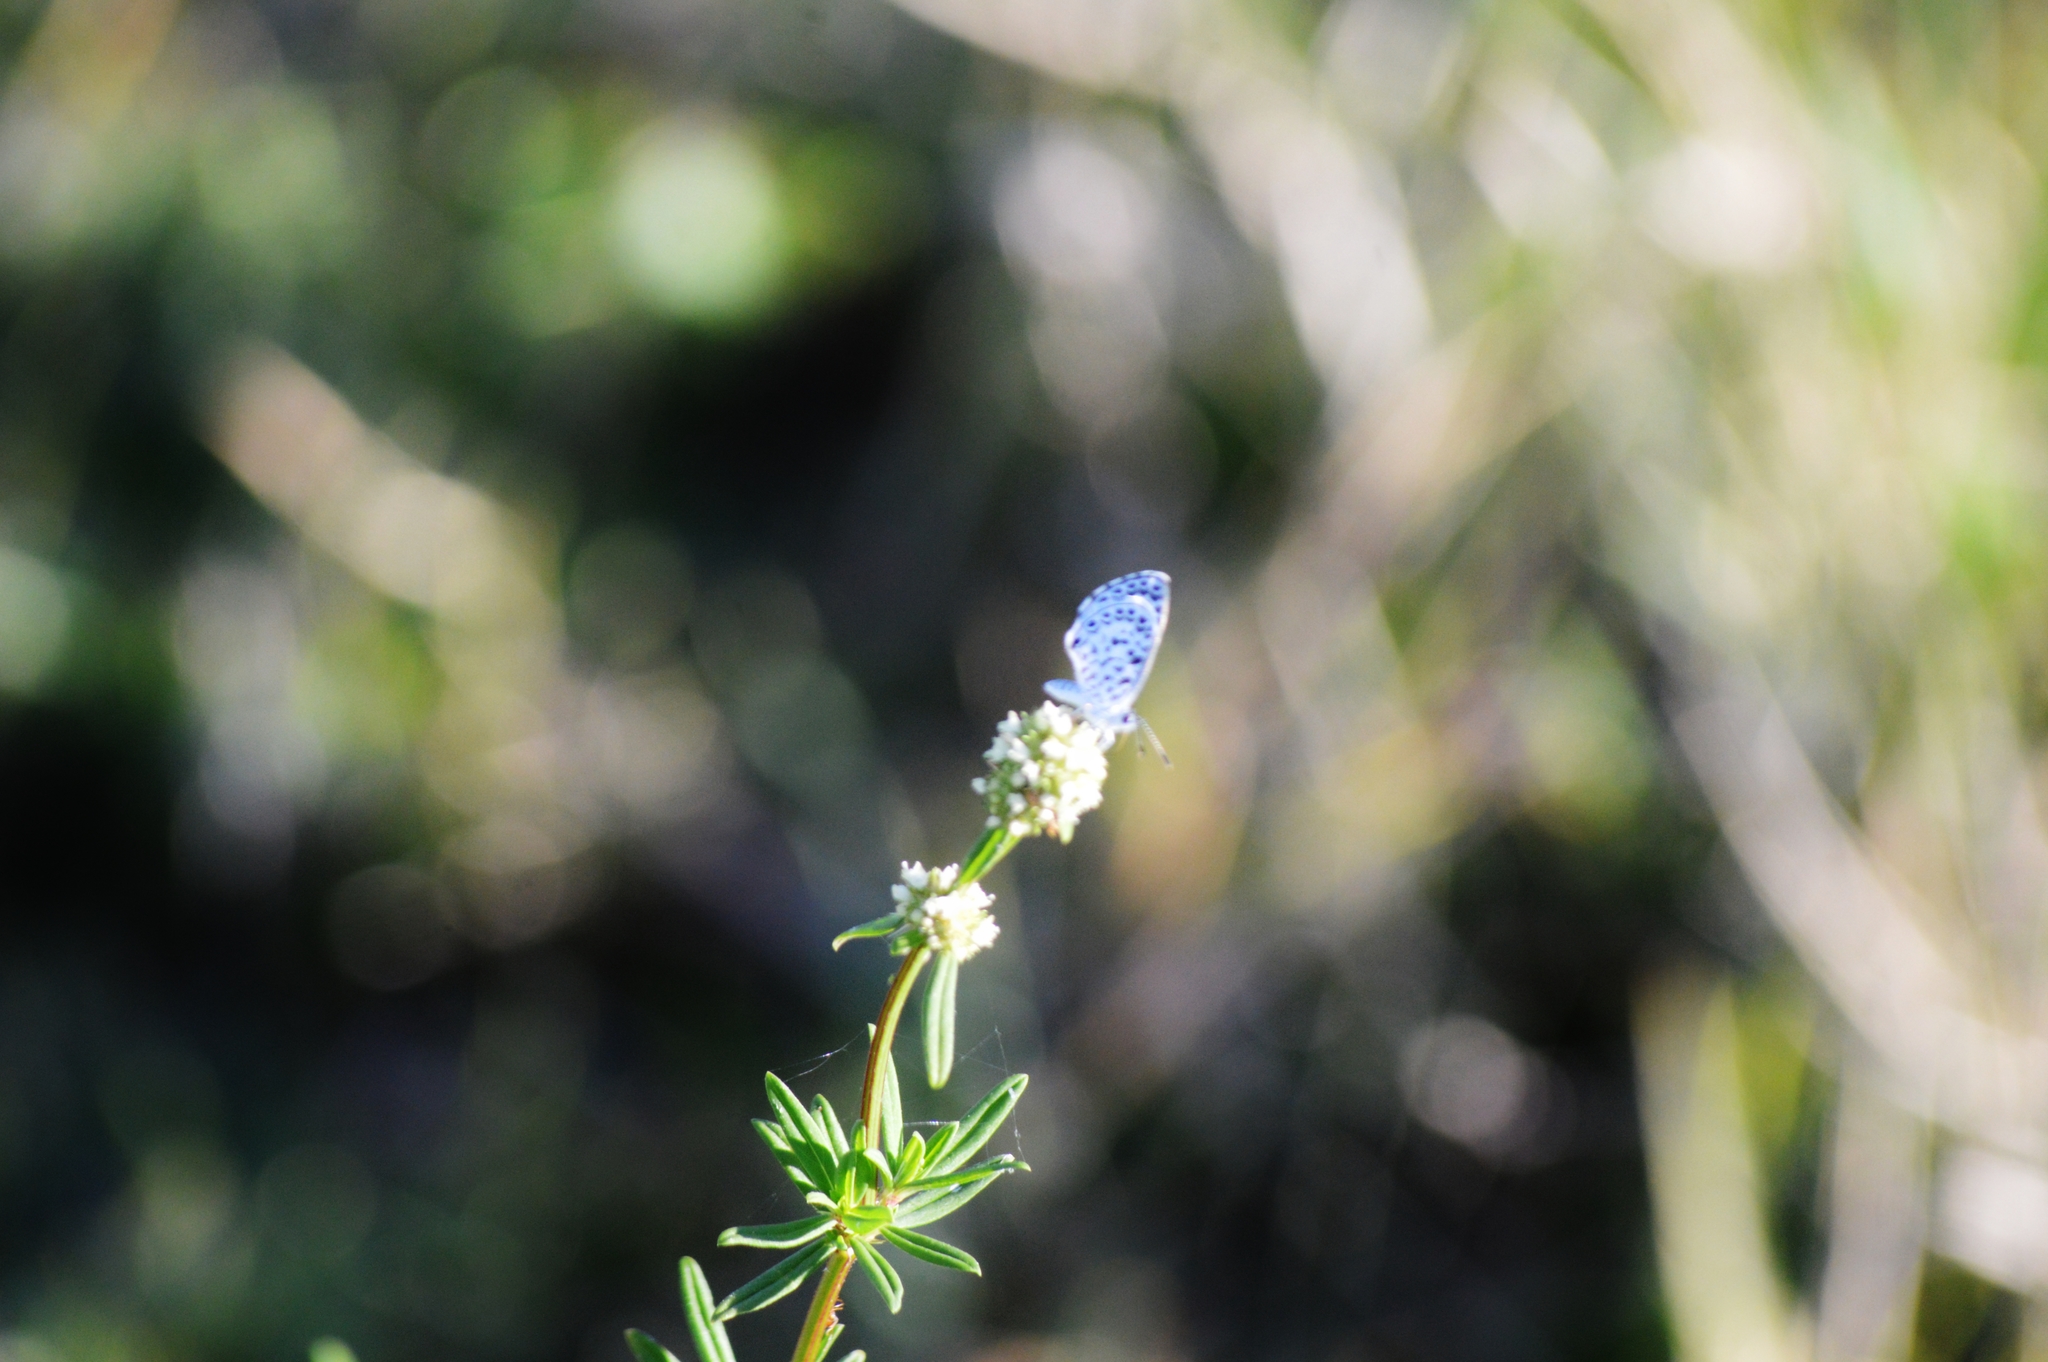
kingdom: Animalia
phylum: Arthropoda
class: Insecta
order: Lepidoptera
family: Lycaenidae
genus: Leptotes
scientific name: Leptotes cassius
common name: Cassius blue
